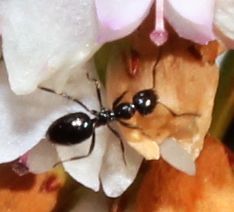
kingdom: Animalia
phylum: Arthropoda
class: Insecta
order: Hymenoptera
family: Formicidae
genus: Lepisiota
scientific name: Lepisiota capensis
